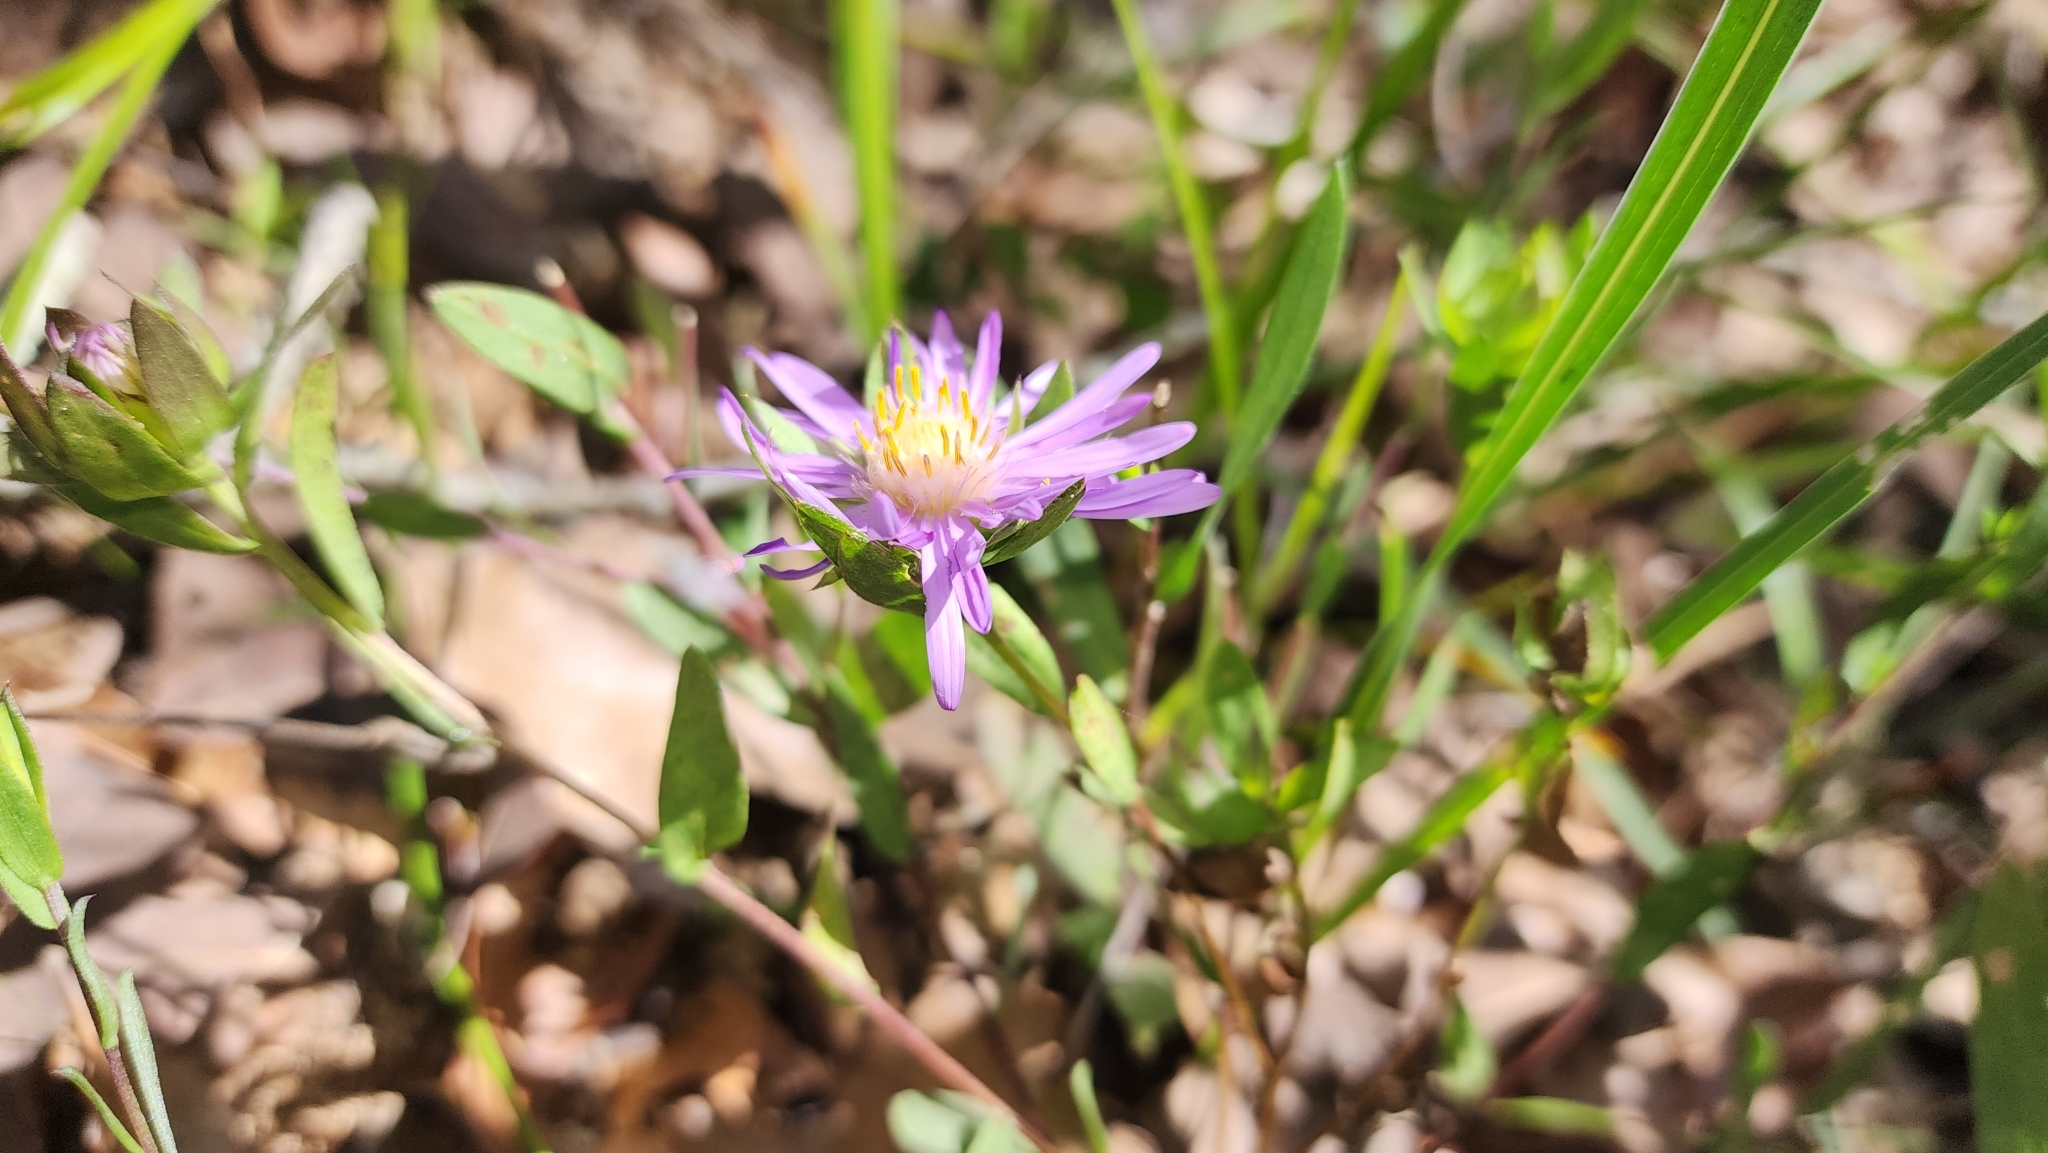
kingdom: Plantae
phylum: Tracheophyta
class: Magnoliopsida
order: Asterales
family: Asteraceae
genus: Symphyotrichum
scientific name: Symphyotrichum pratense
